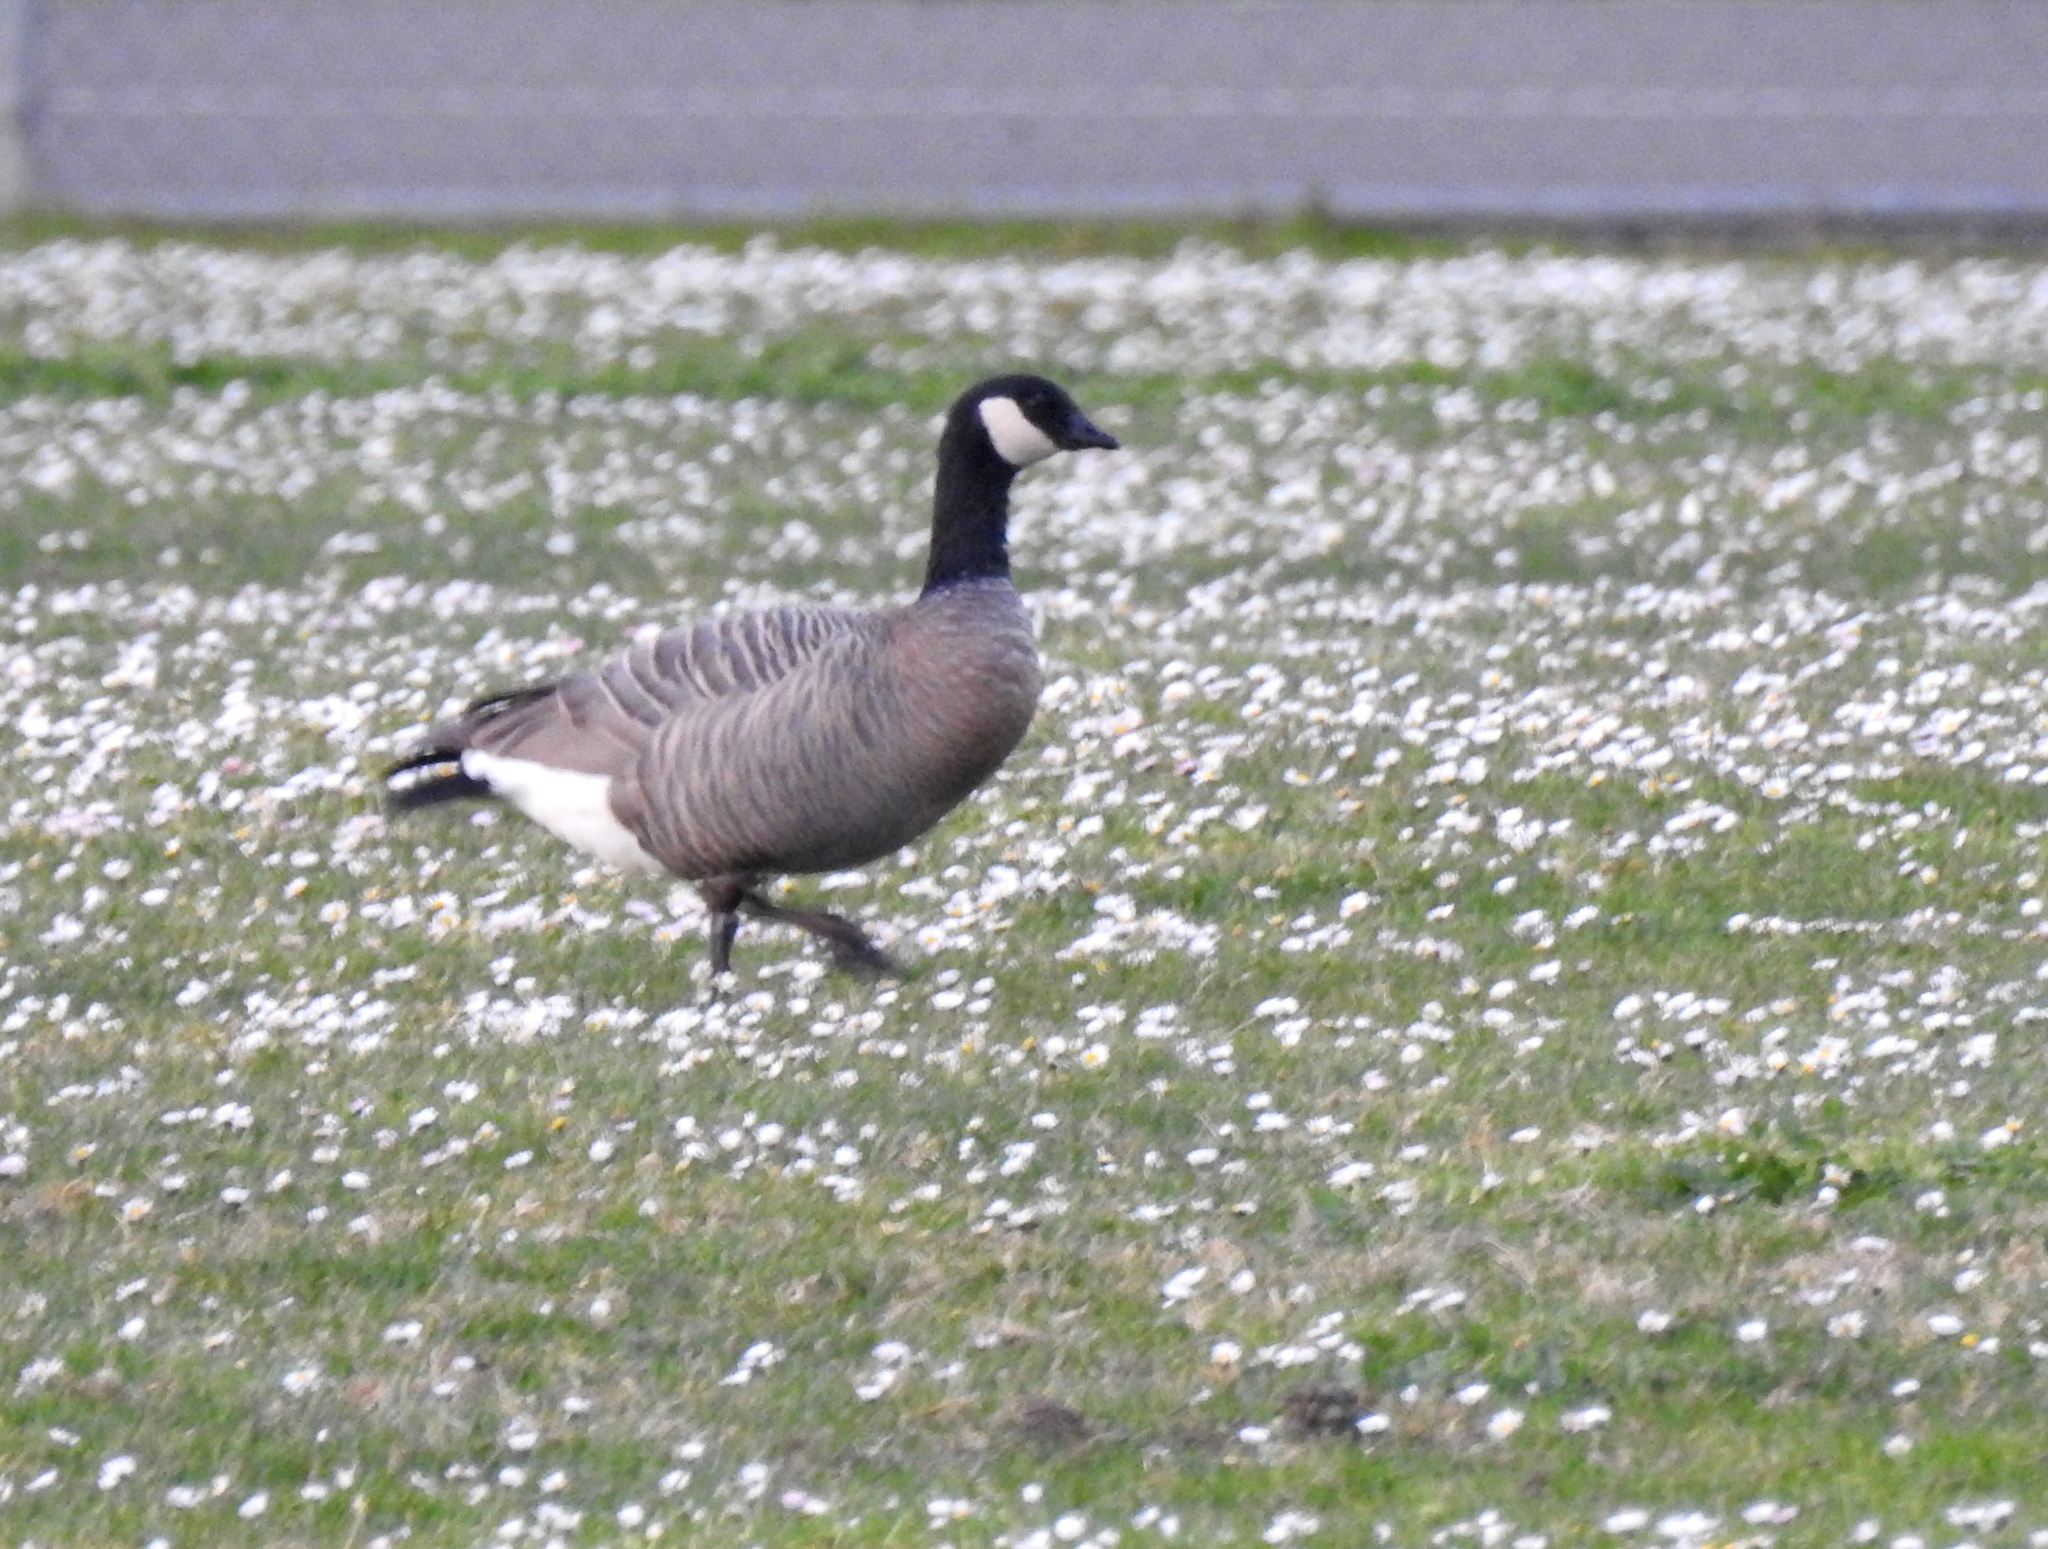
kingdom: Animalia
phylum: Chordata
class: Aves
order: Anseriformes
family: Anatidae
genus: Branta
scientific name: Branta hutchinsii
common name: Cackling goose
